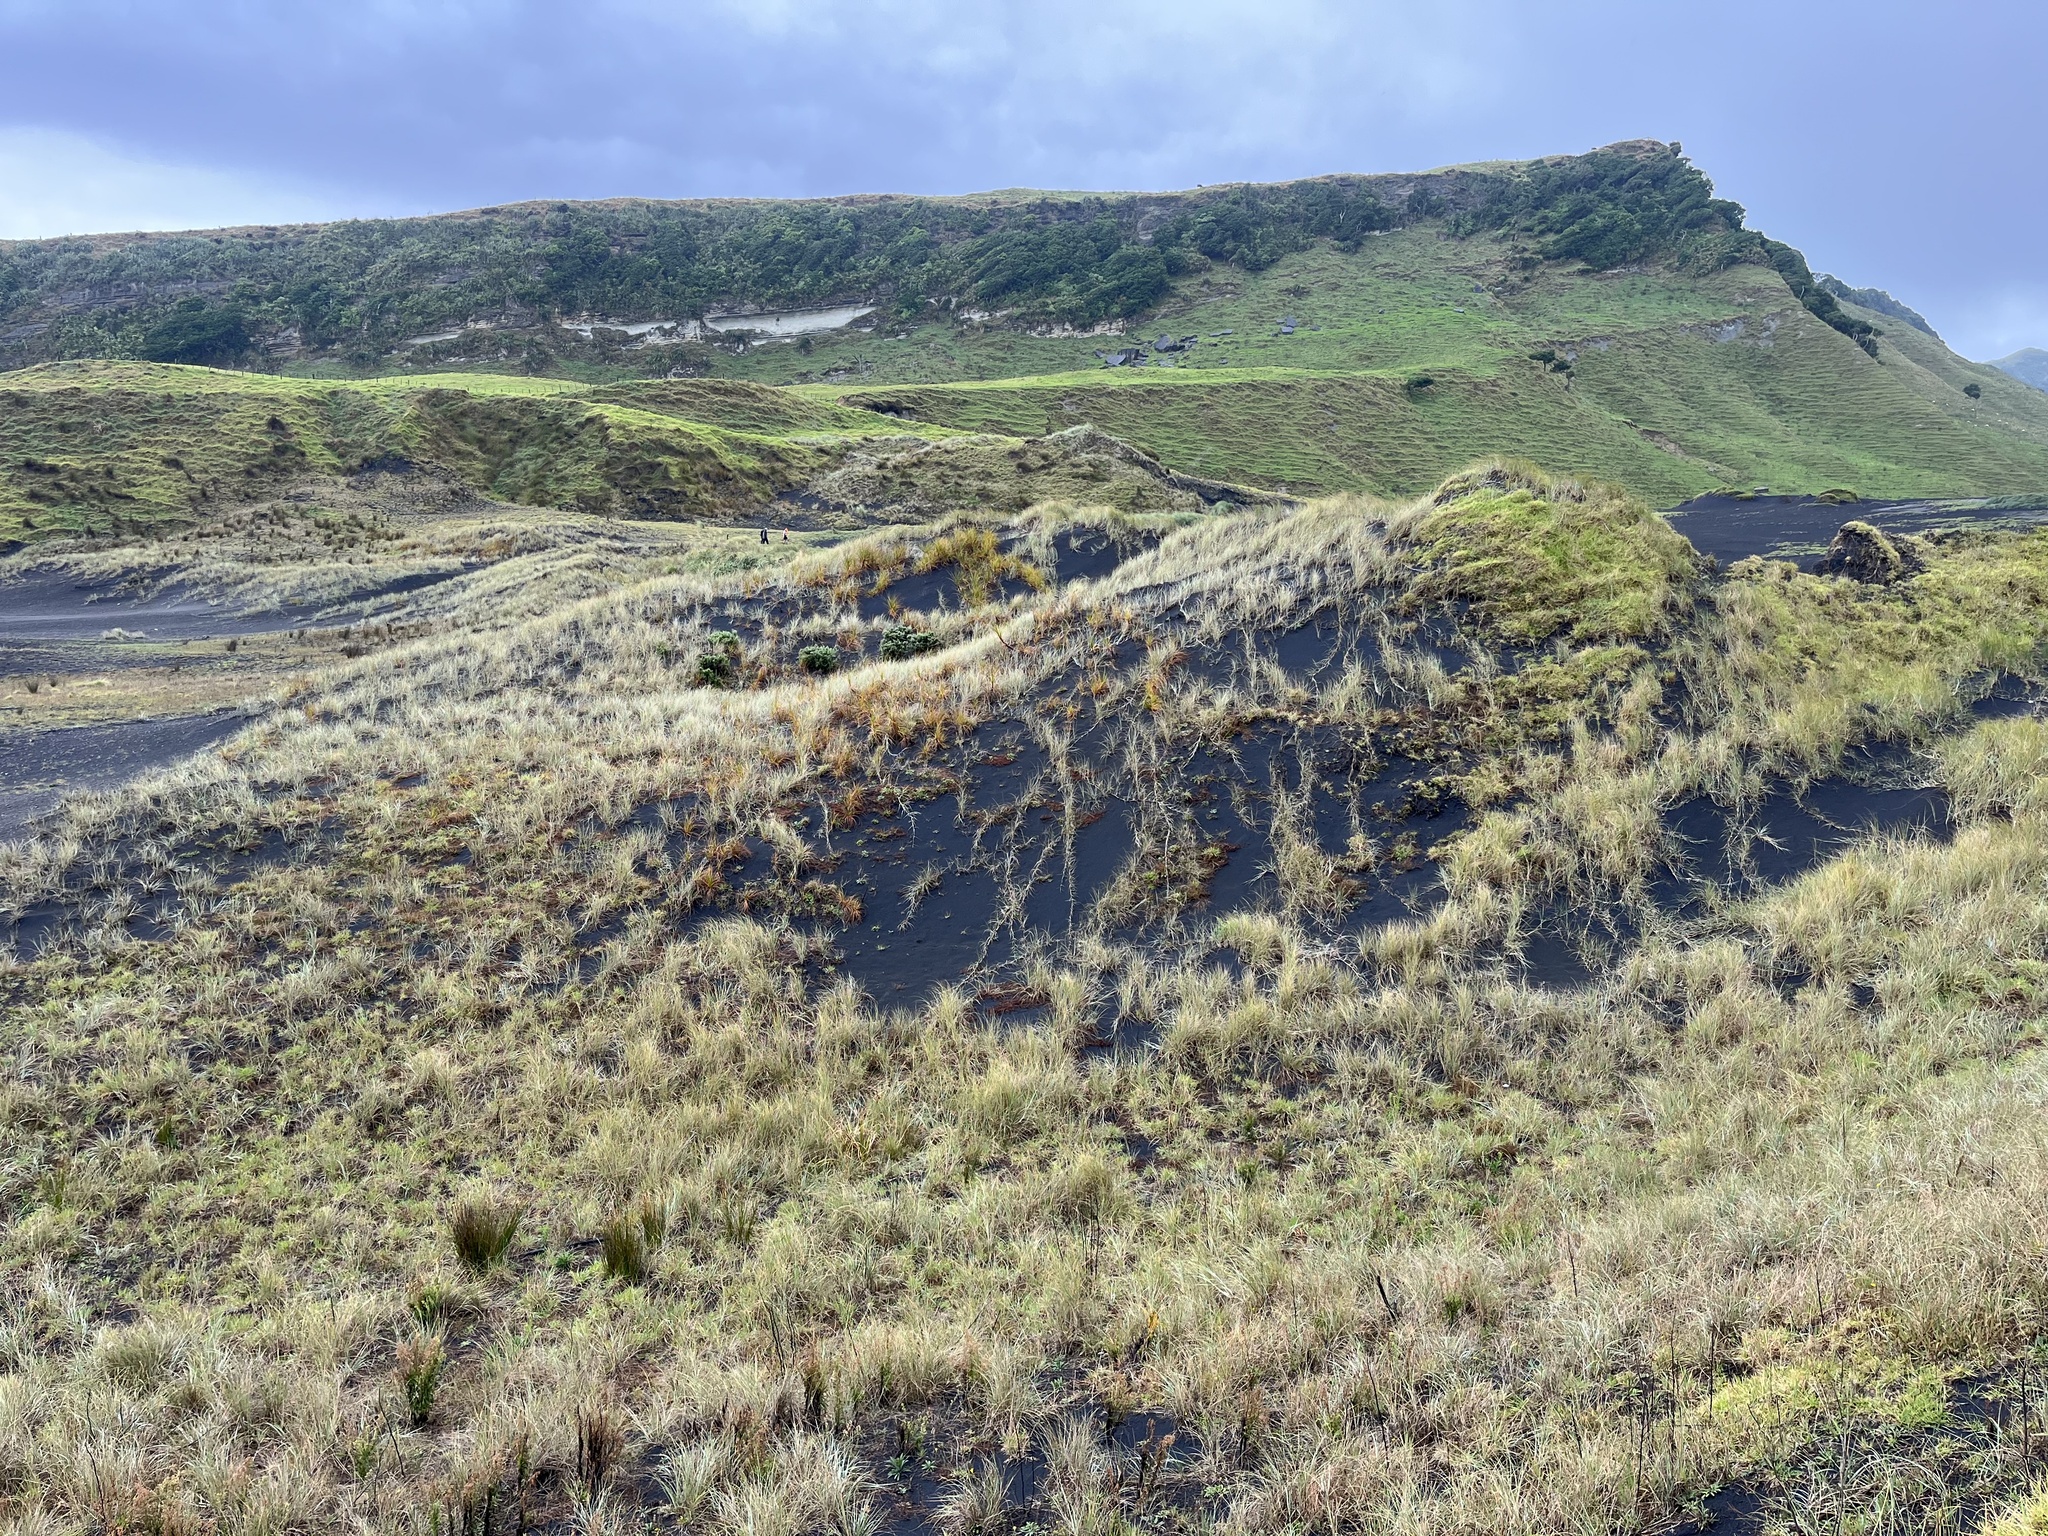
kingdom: Plantae
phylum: Tracheophyta
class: Liliopsida
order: Poales
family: Poaceae
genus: Spinifex
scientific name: Spinifex sericeus
